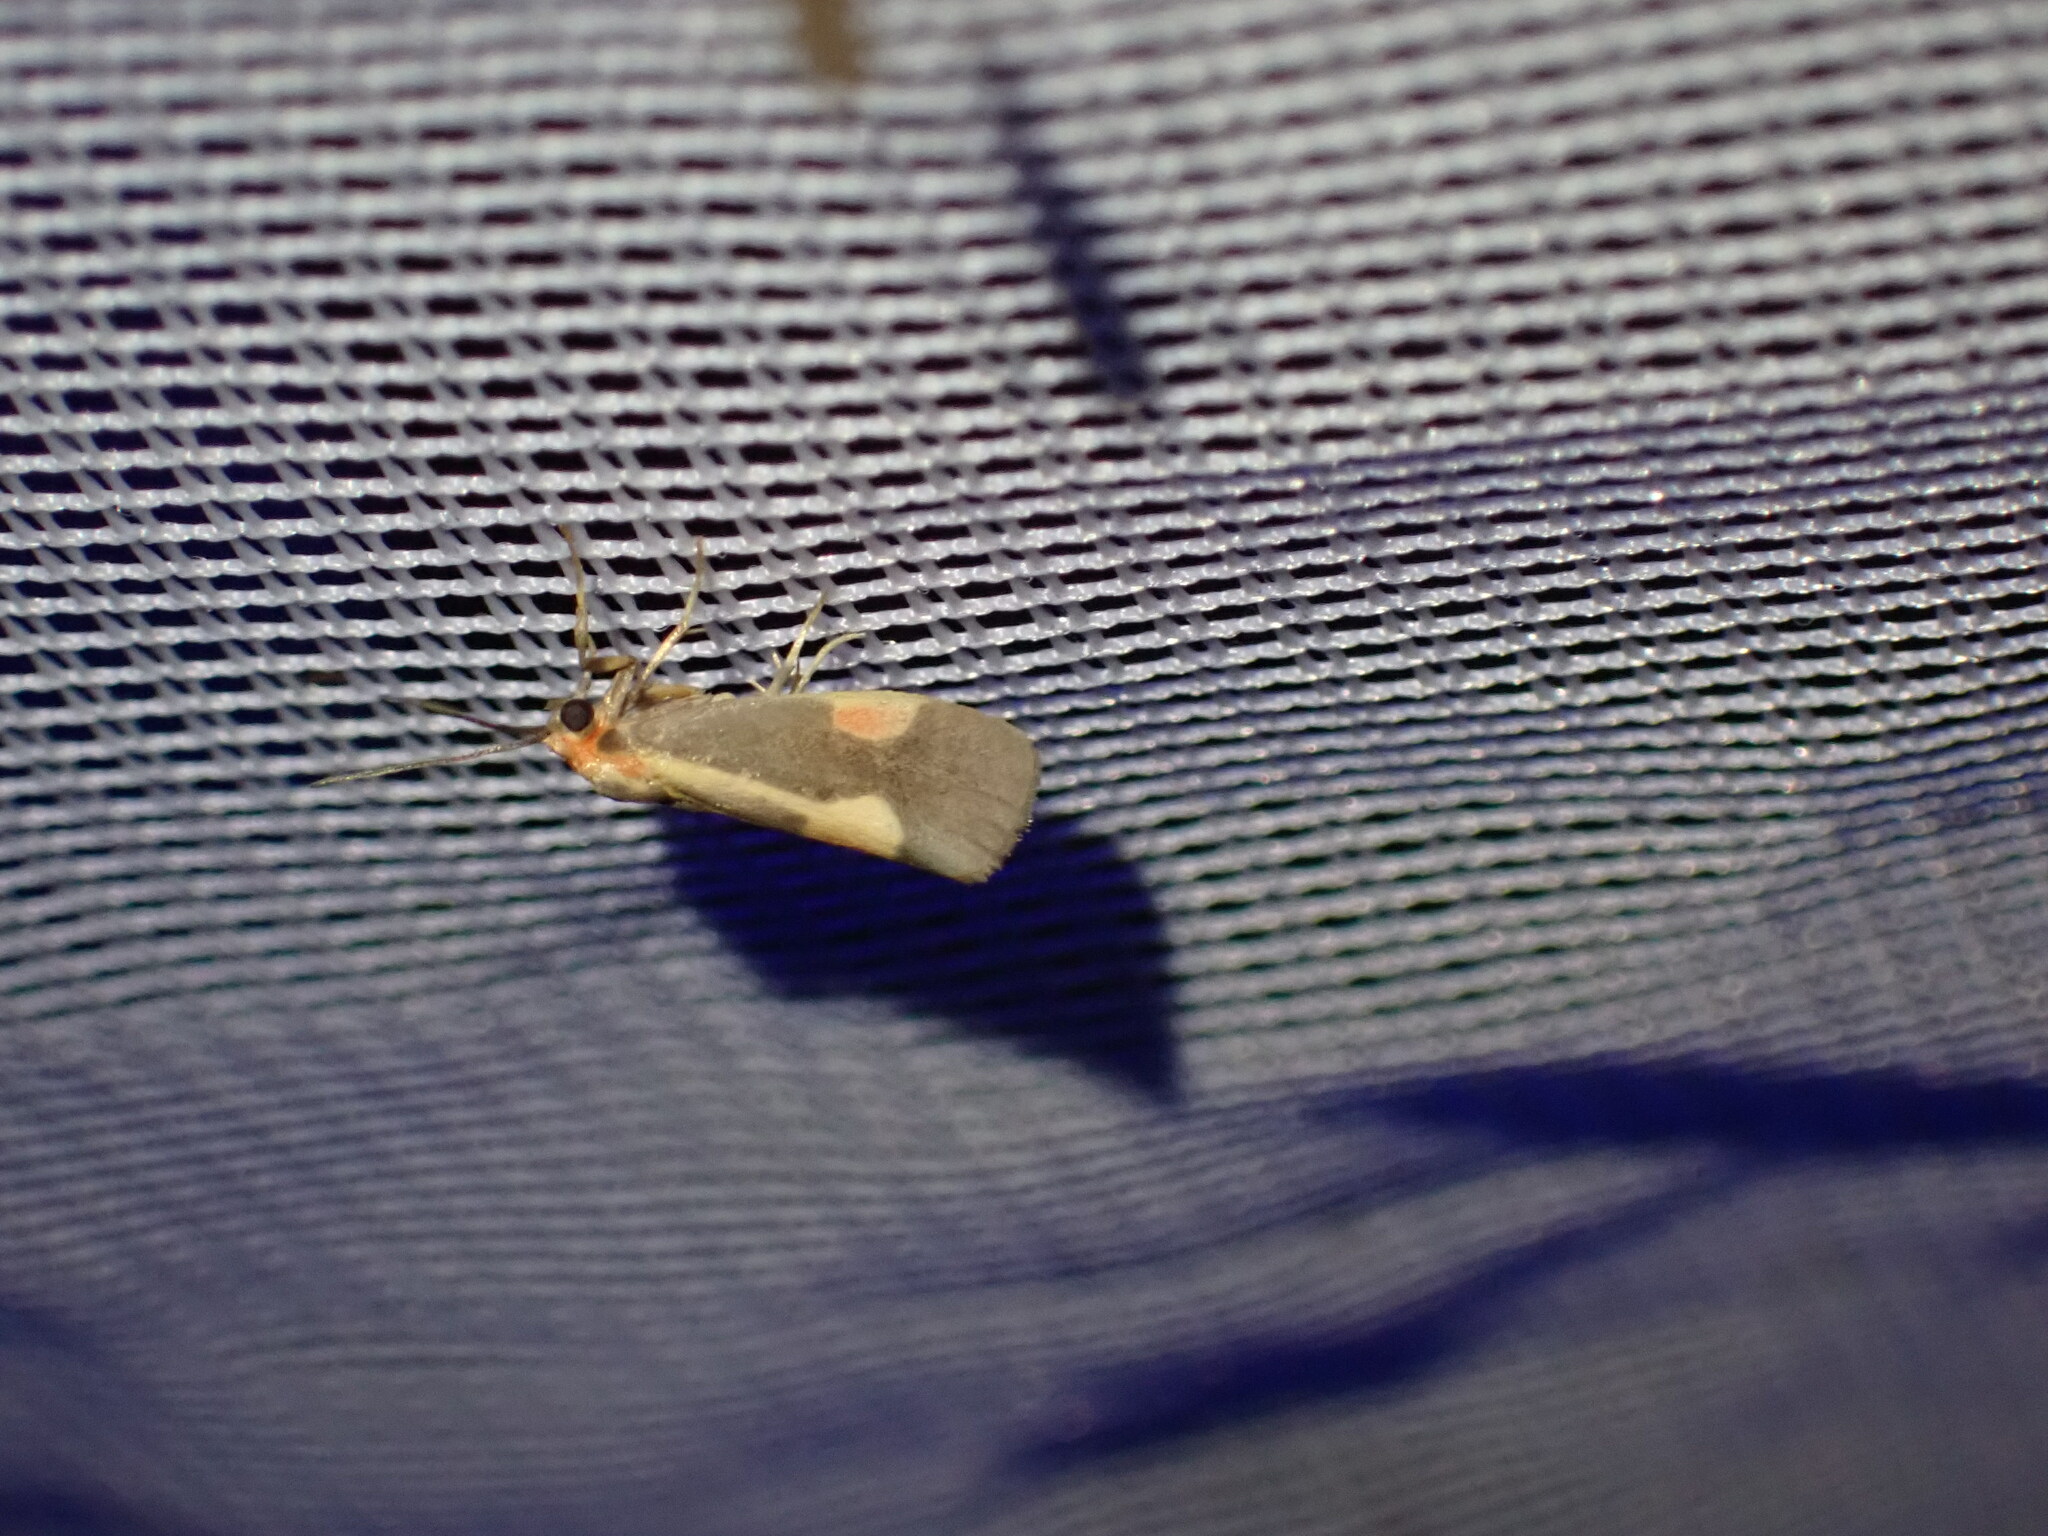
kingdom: Animalia
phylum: Arthropoda
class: Insecta
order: Lepidoptera
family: Erebidae
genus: Cisthene
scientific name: Cisthene packardii
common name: Packard's lichen moth
